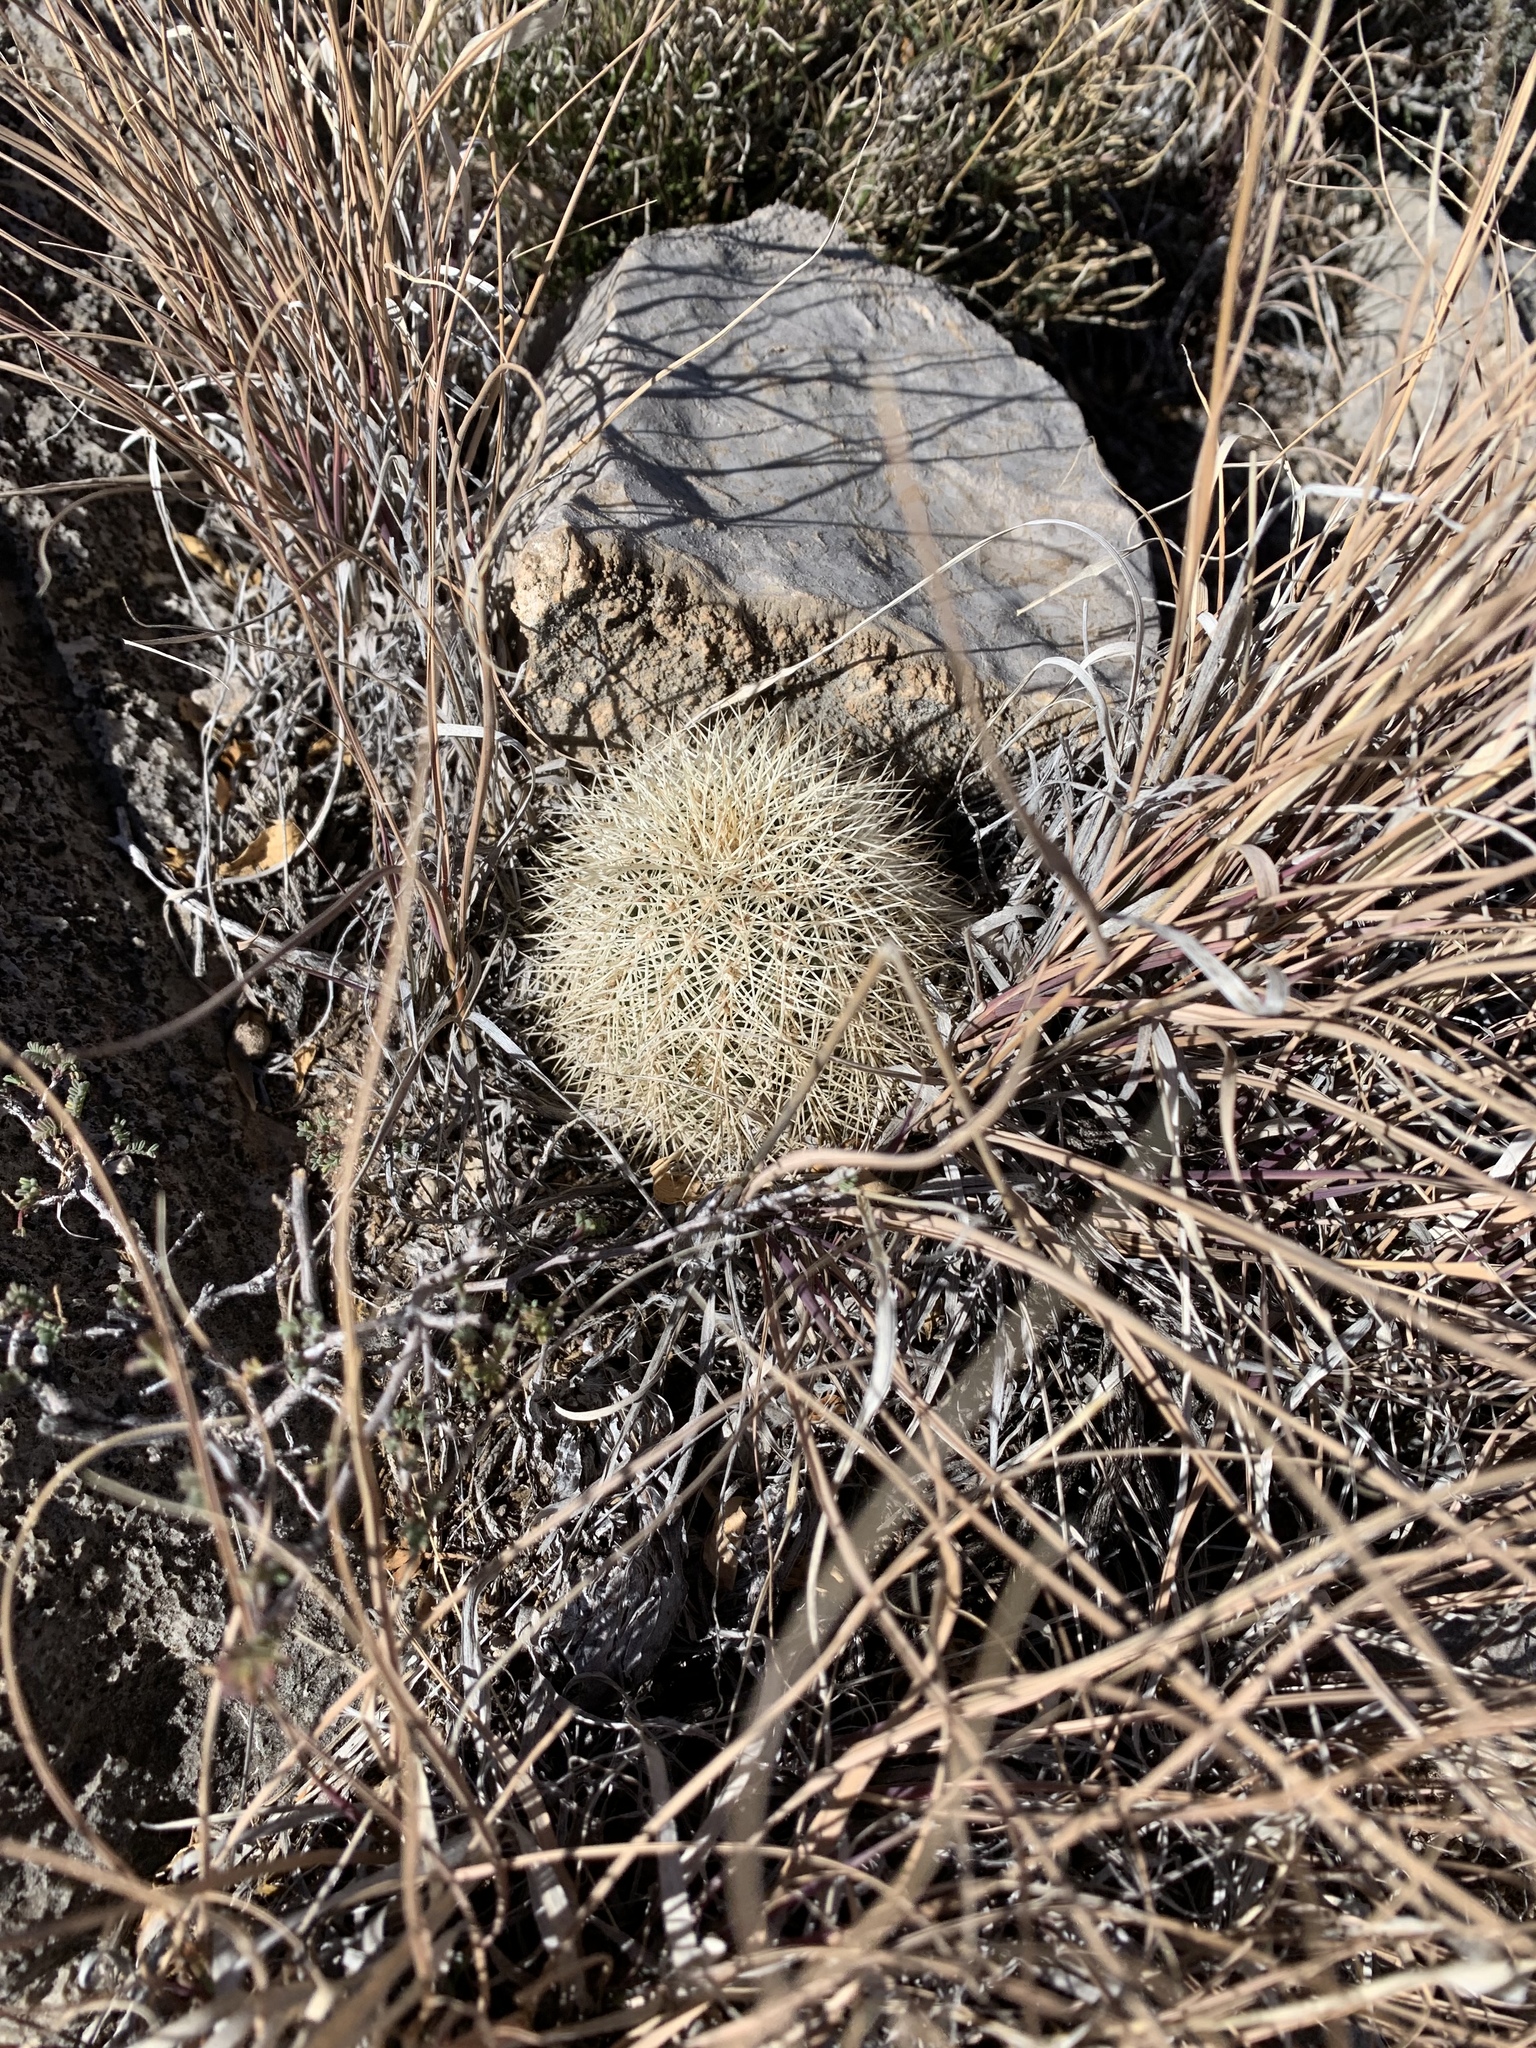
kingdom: Plantae
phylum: Tracheophyta
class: Magnoliopsida
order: Caryophyllales
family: Cactaceae
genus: Echinocereus
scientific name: Echinocereus dasyacanthus
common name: Spiny hedgehog cactus
